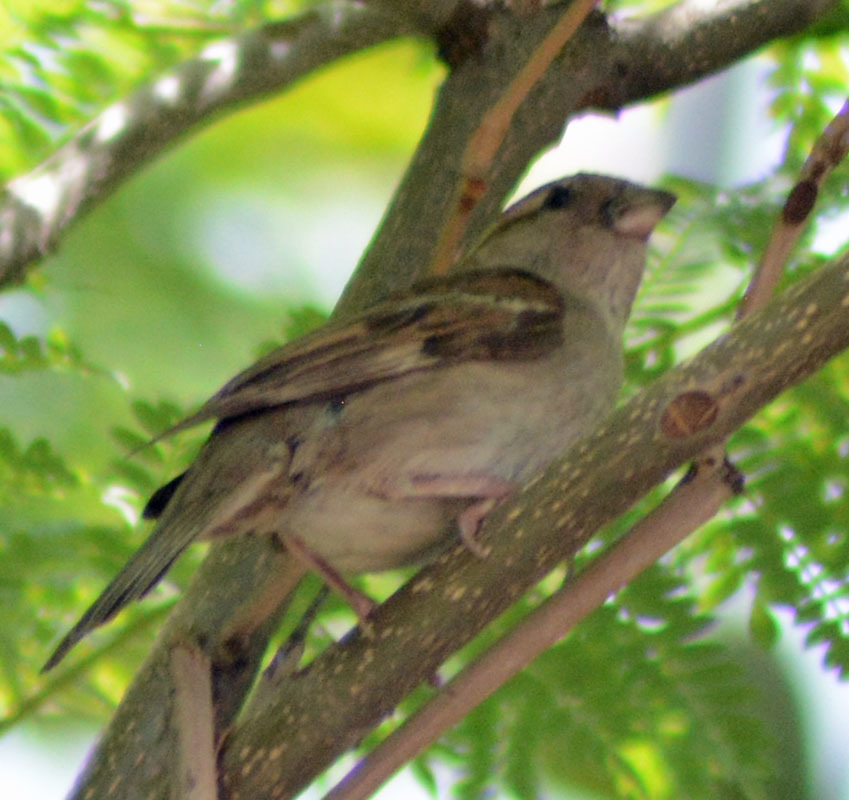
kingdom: Animalia
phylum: Chordata
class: Aves
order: Passeriformes
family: Passeridae
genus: Passer
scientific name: Passer domesticus
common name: House sparrow
